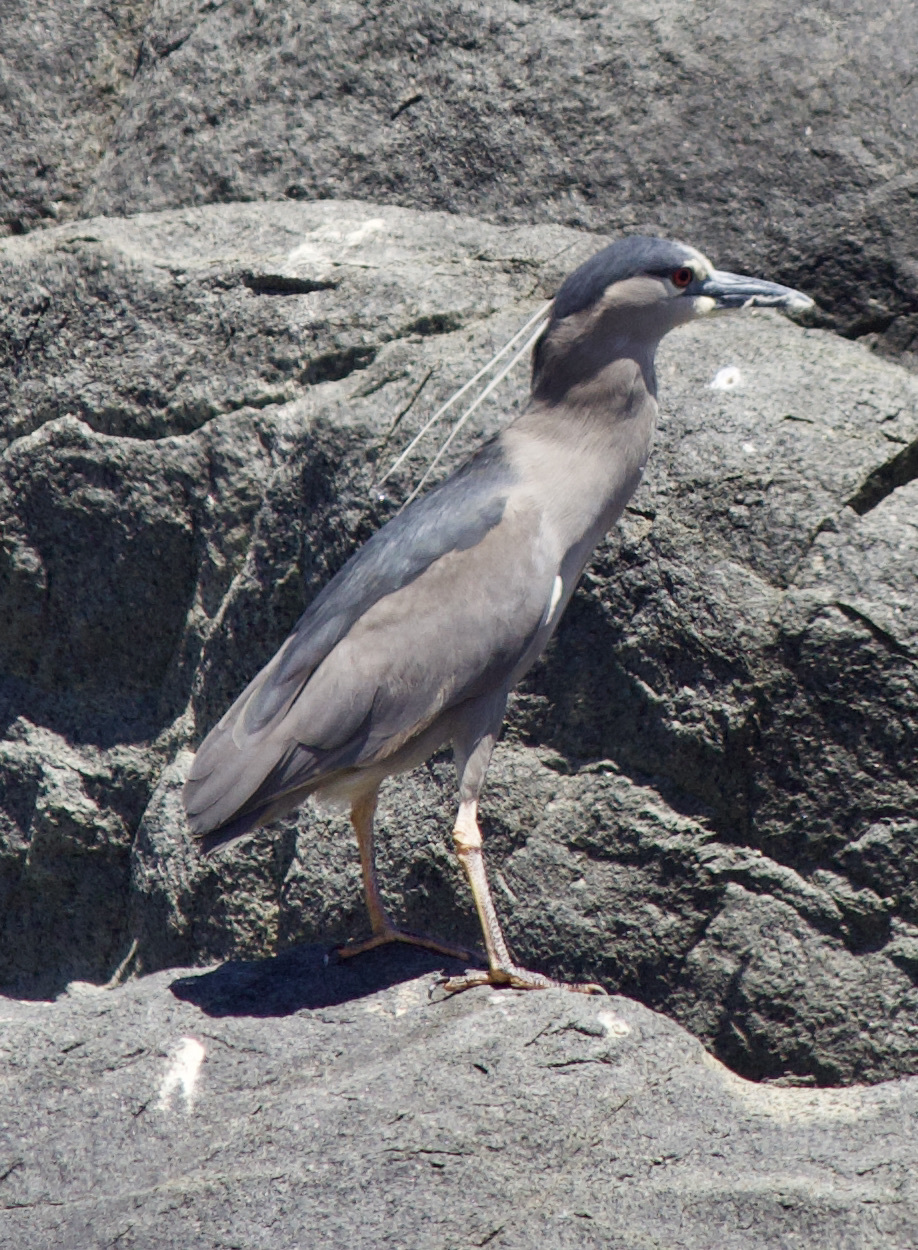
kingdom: Animalia
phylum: Chordata
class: Aves
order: Pelecaniformes
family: Ardeidae
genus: Nycticorax
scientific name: Nycticorax nycticorax
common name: Black-crowned night heron
